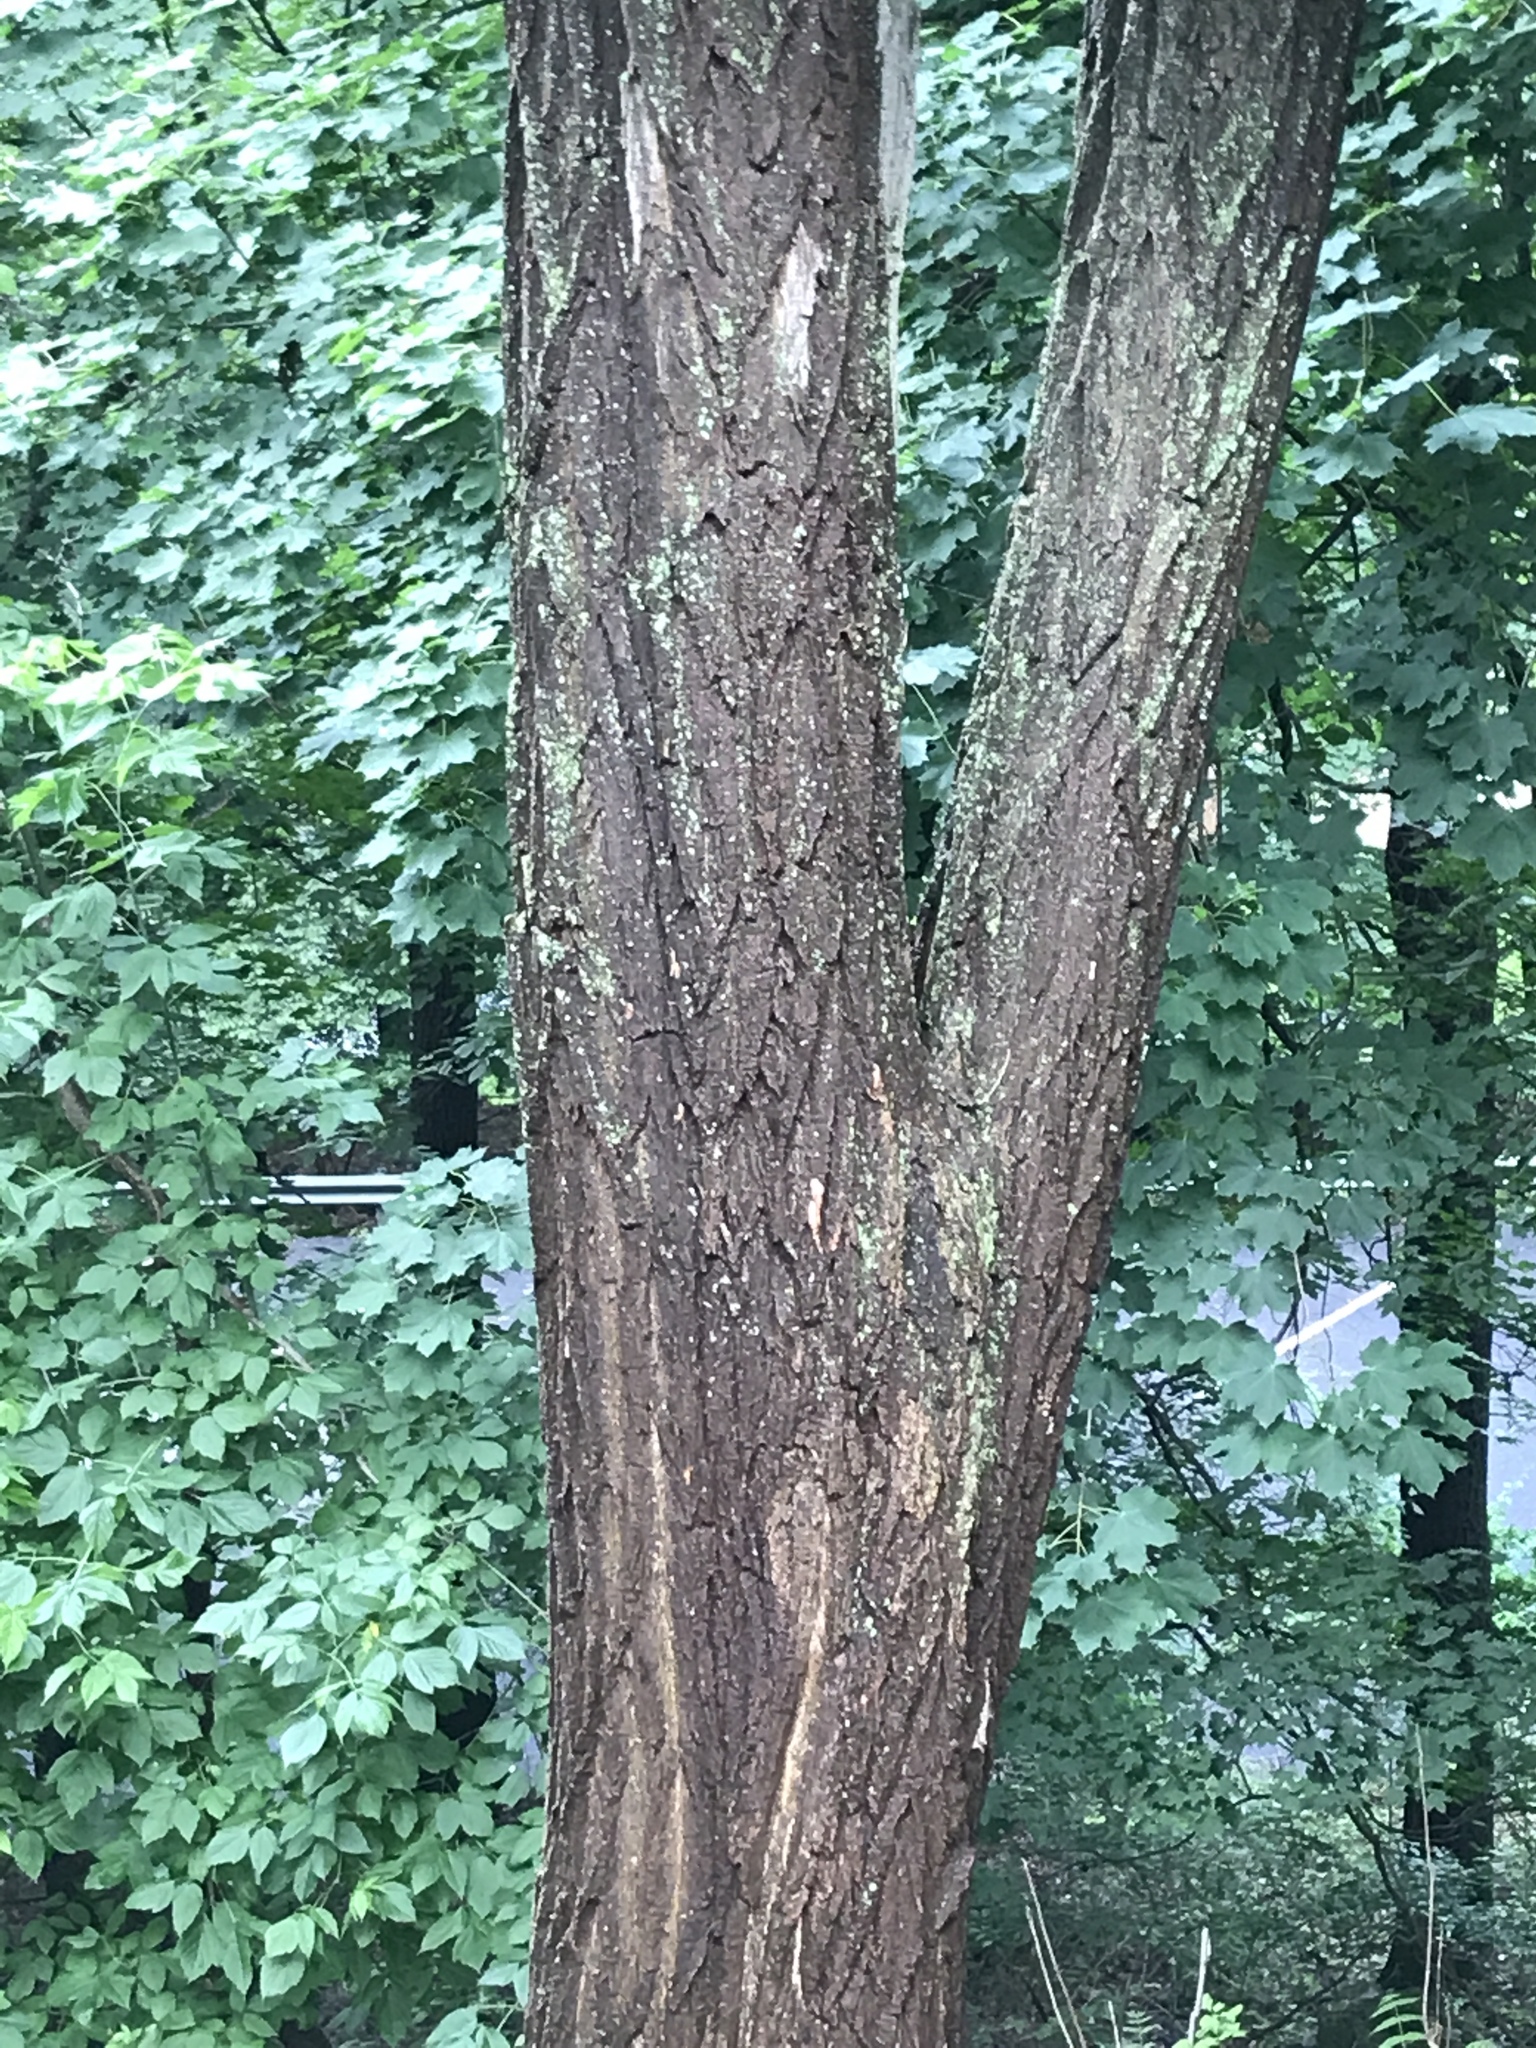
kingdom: Plantae
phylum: Tracheophyta
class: Magnoliopsida
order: Fabales
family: Fabaceae
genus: Robinia
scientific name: Robinia pseudoacacia
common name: Black locust
